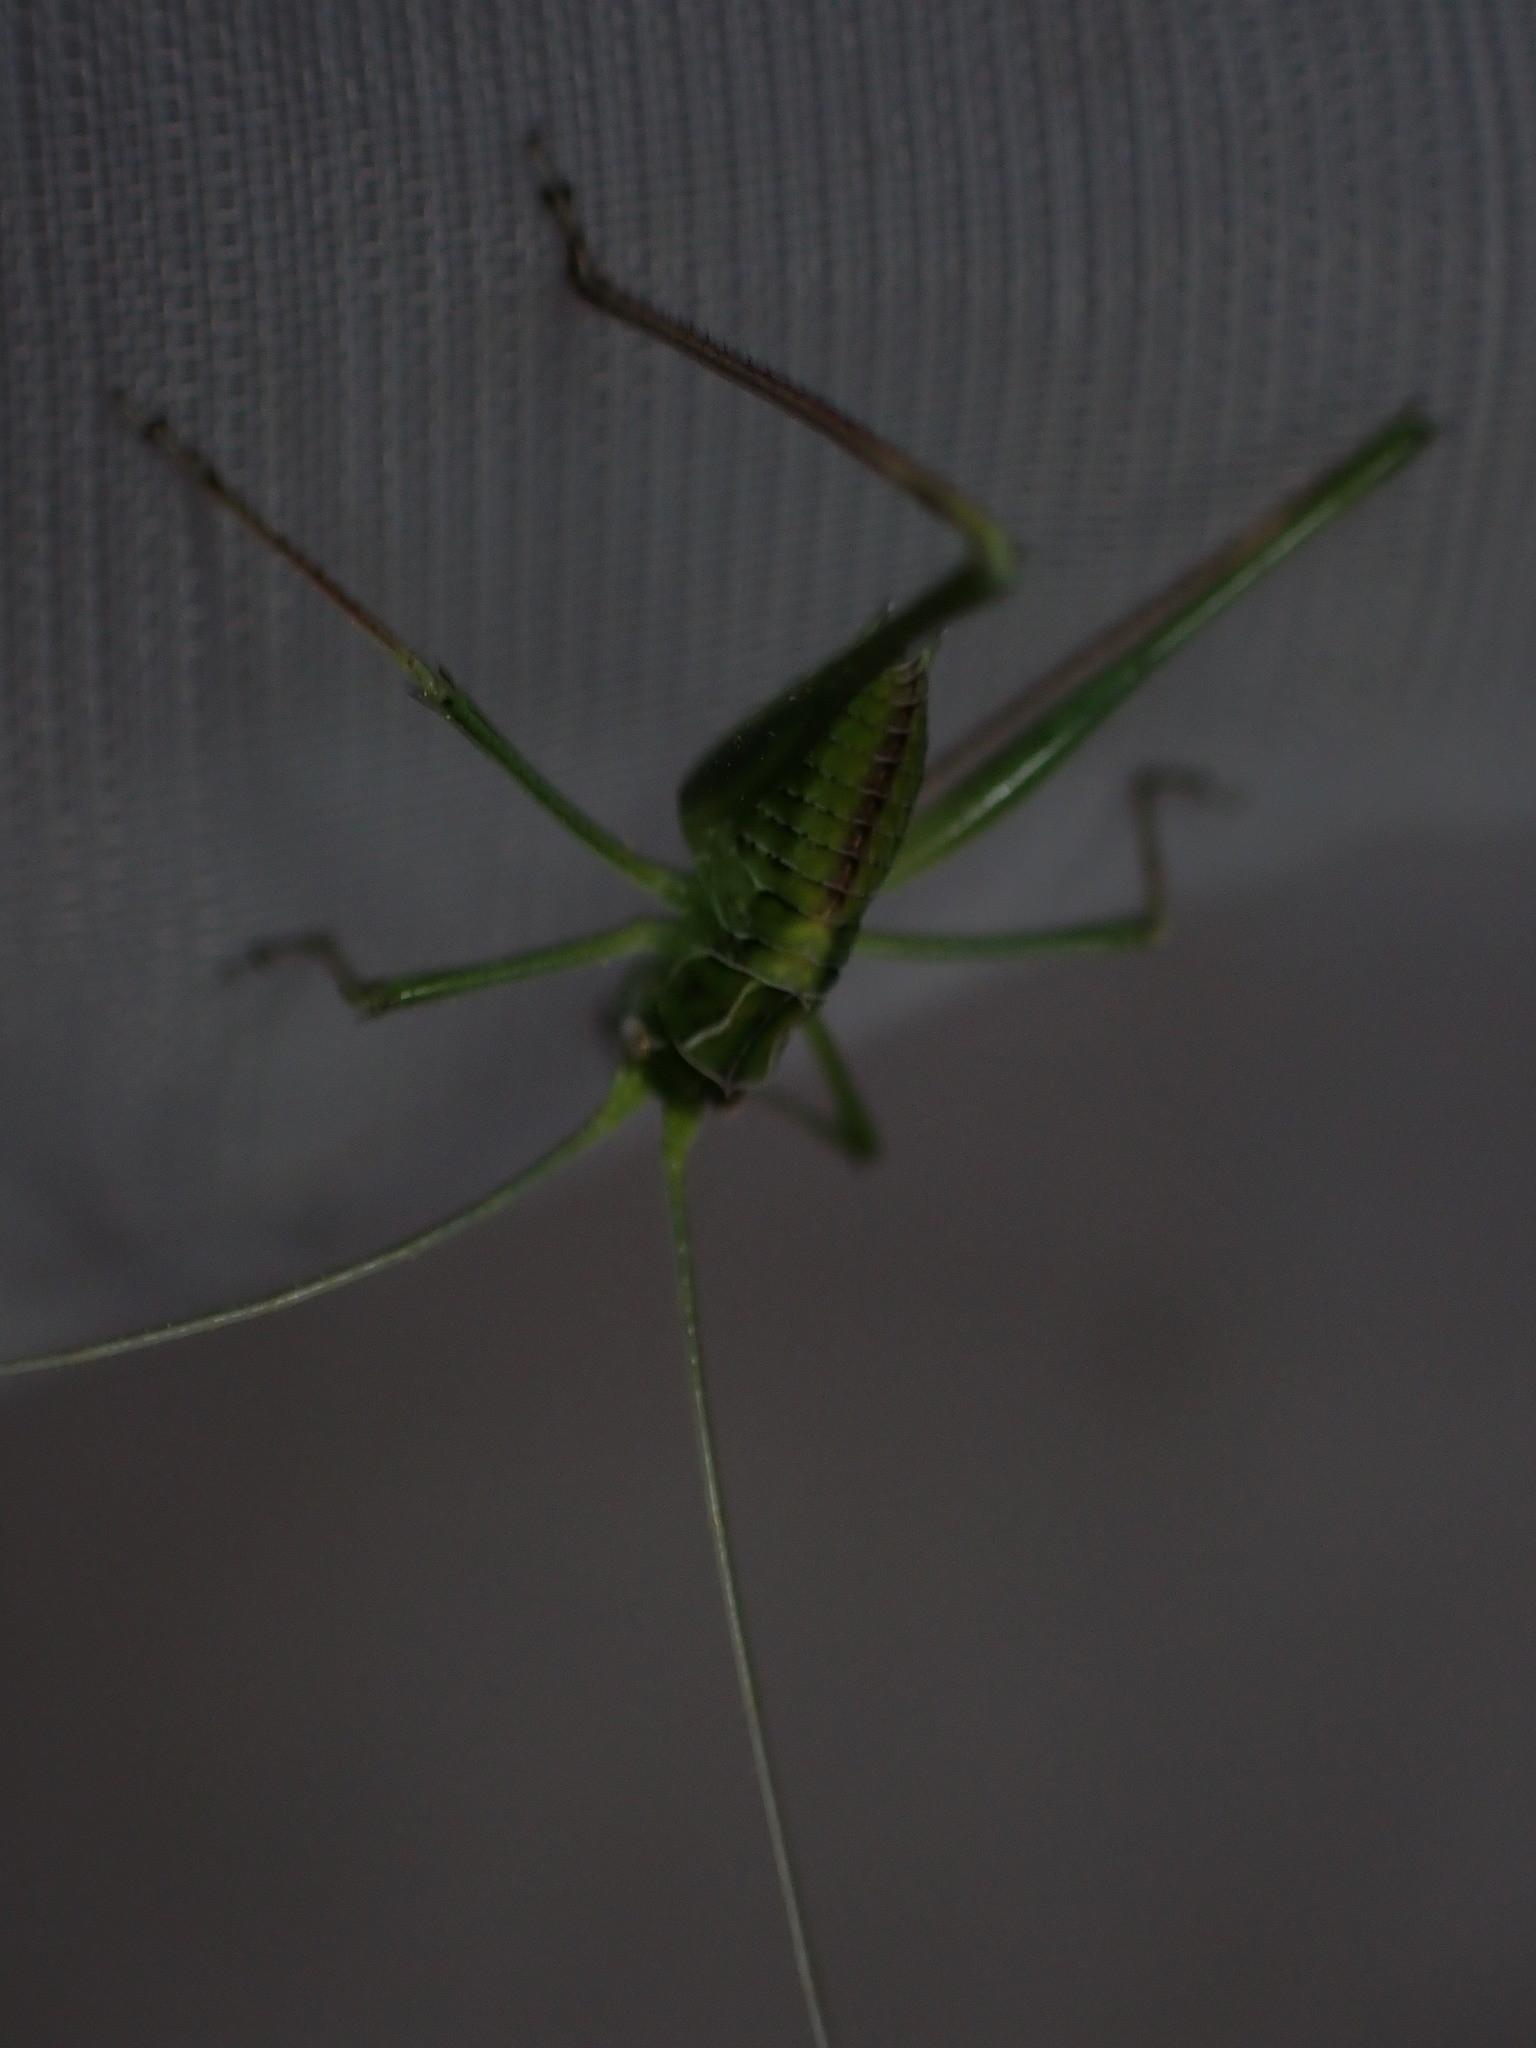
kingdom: Animalia
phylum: Arthropoda
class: Insecta
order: Orthoptera
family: Tettigoniidae
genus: Tylopsis
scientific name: Tylopsis lilifolia
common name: Lily bush-cricket
